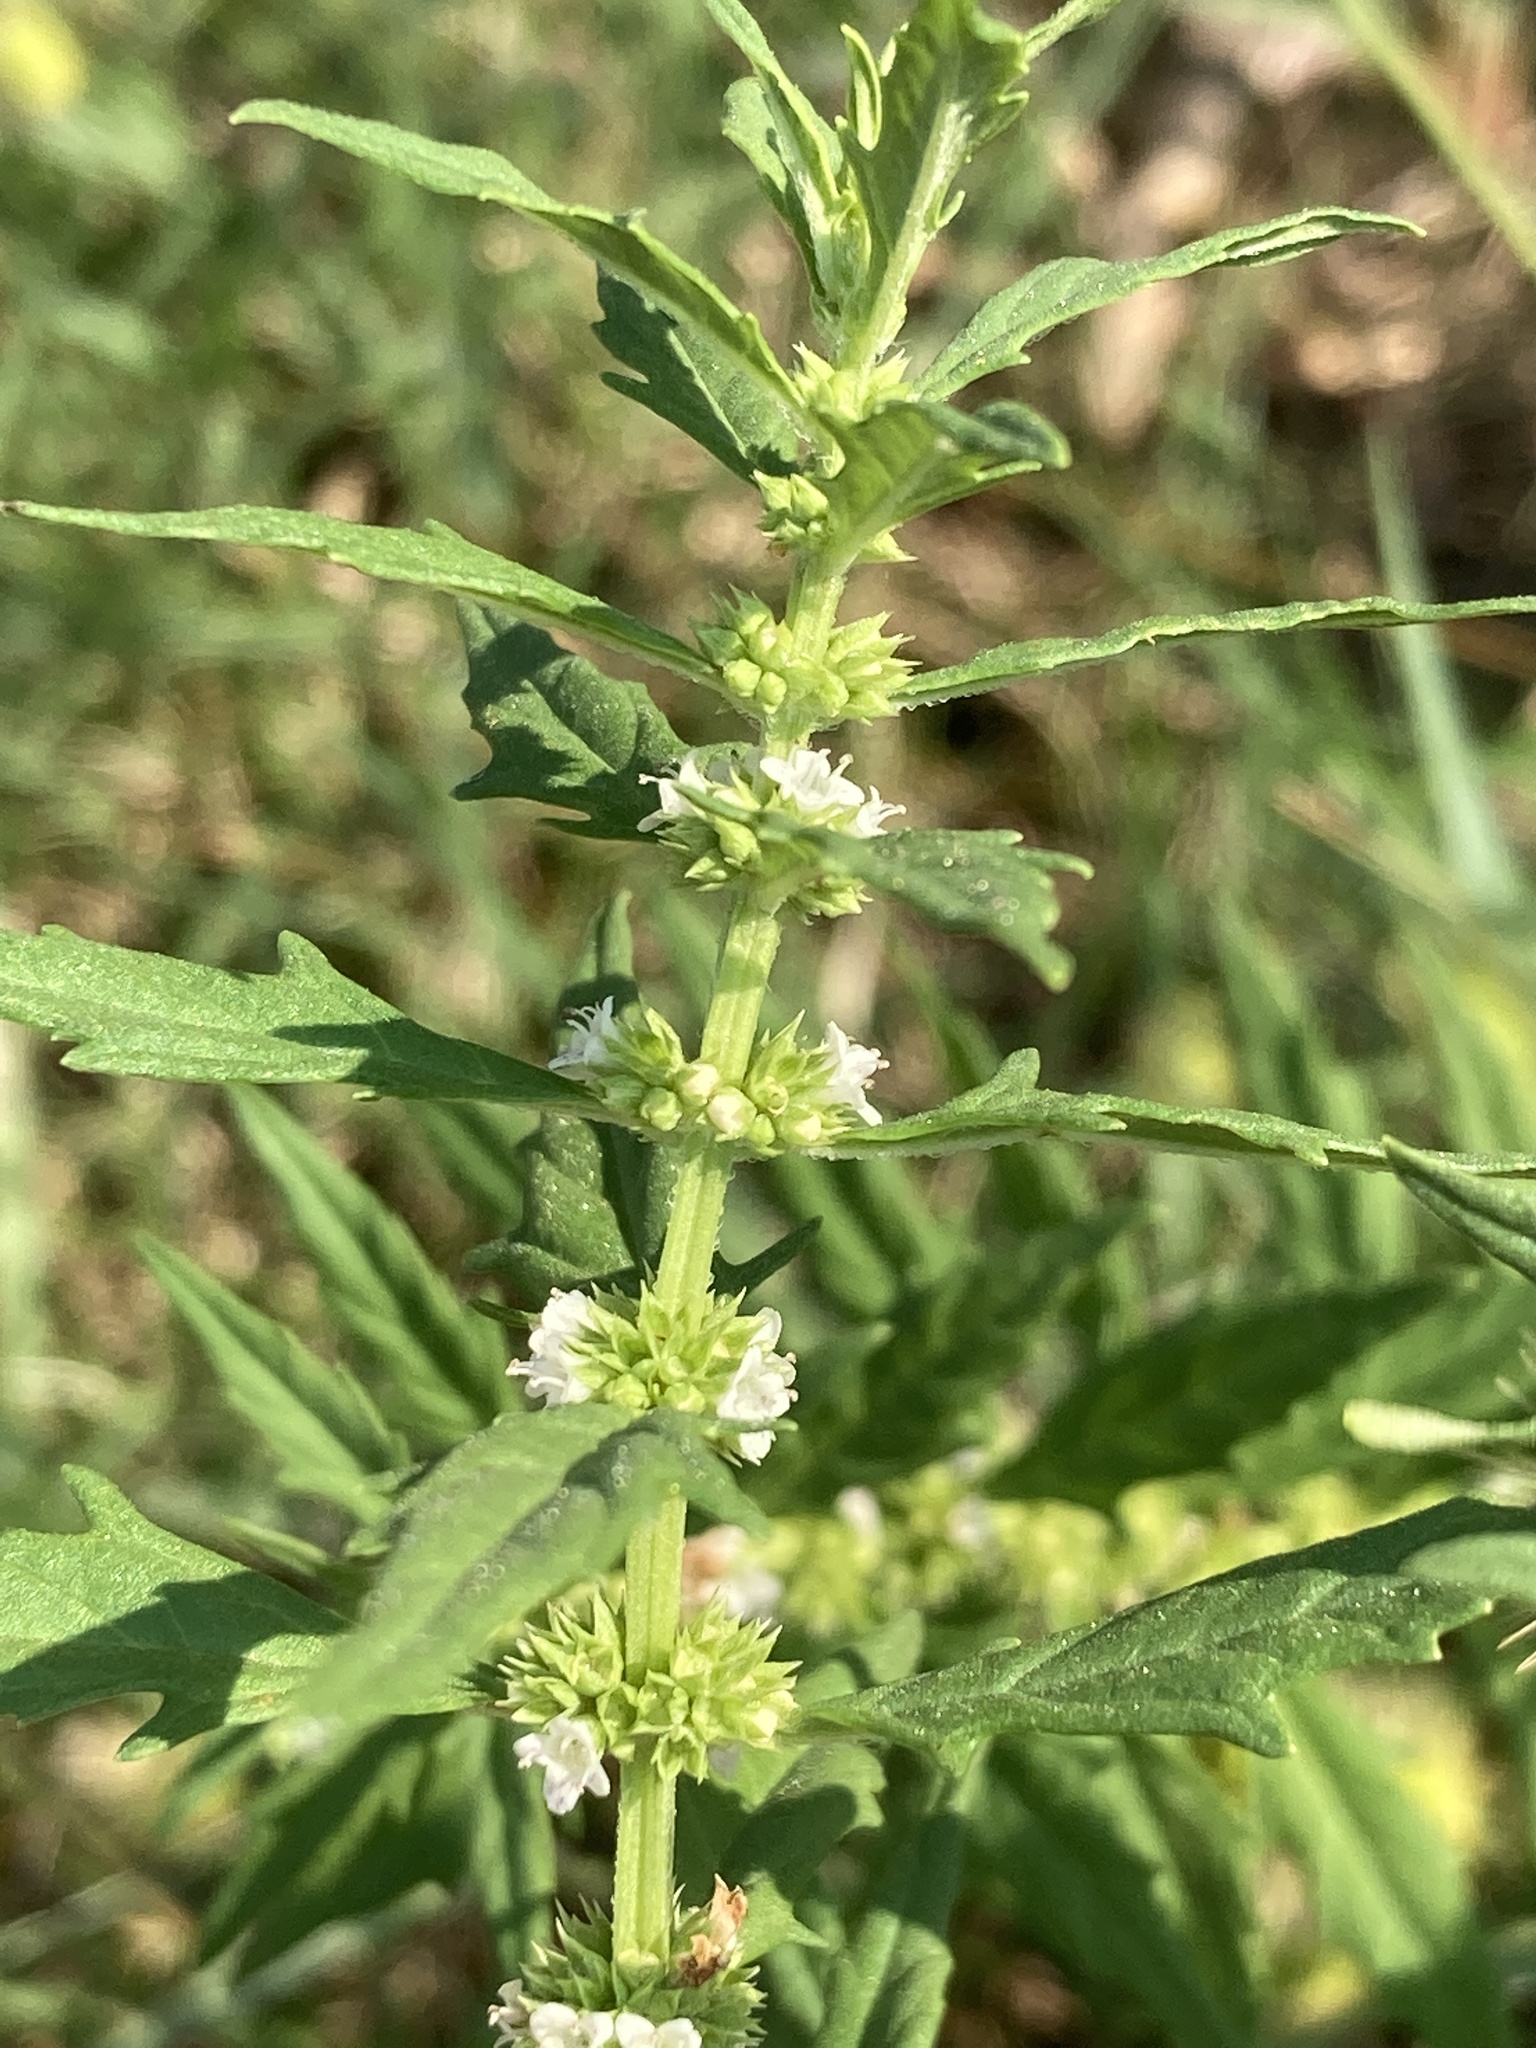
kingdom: Plantae
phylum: Tracheophyta
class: Magnoliopsida
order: Lamiales
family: Lamiaceae
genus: Lycopus
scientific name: Lycopus americanus
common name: American bugleweed
